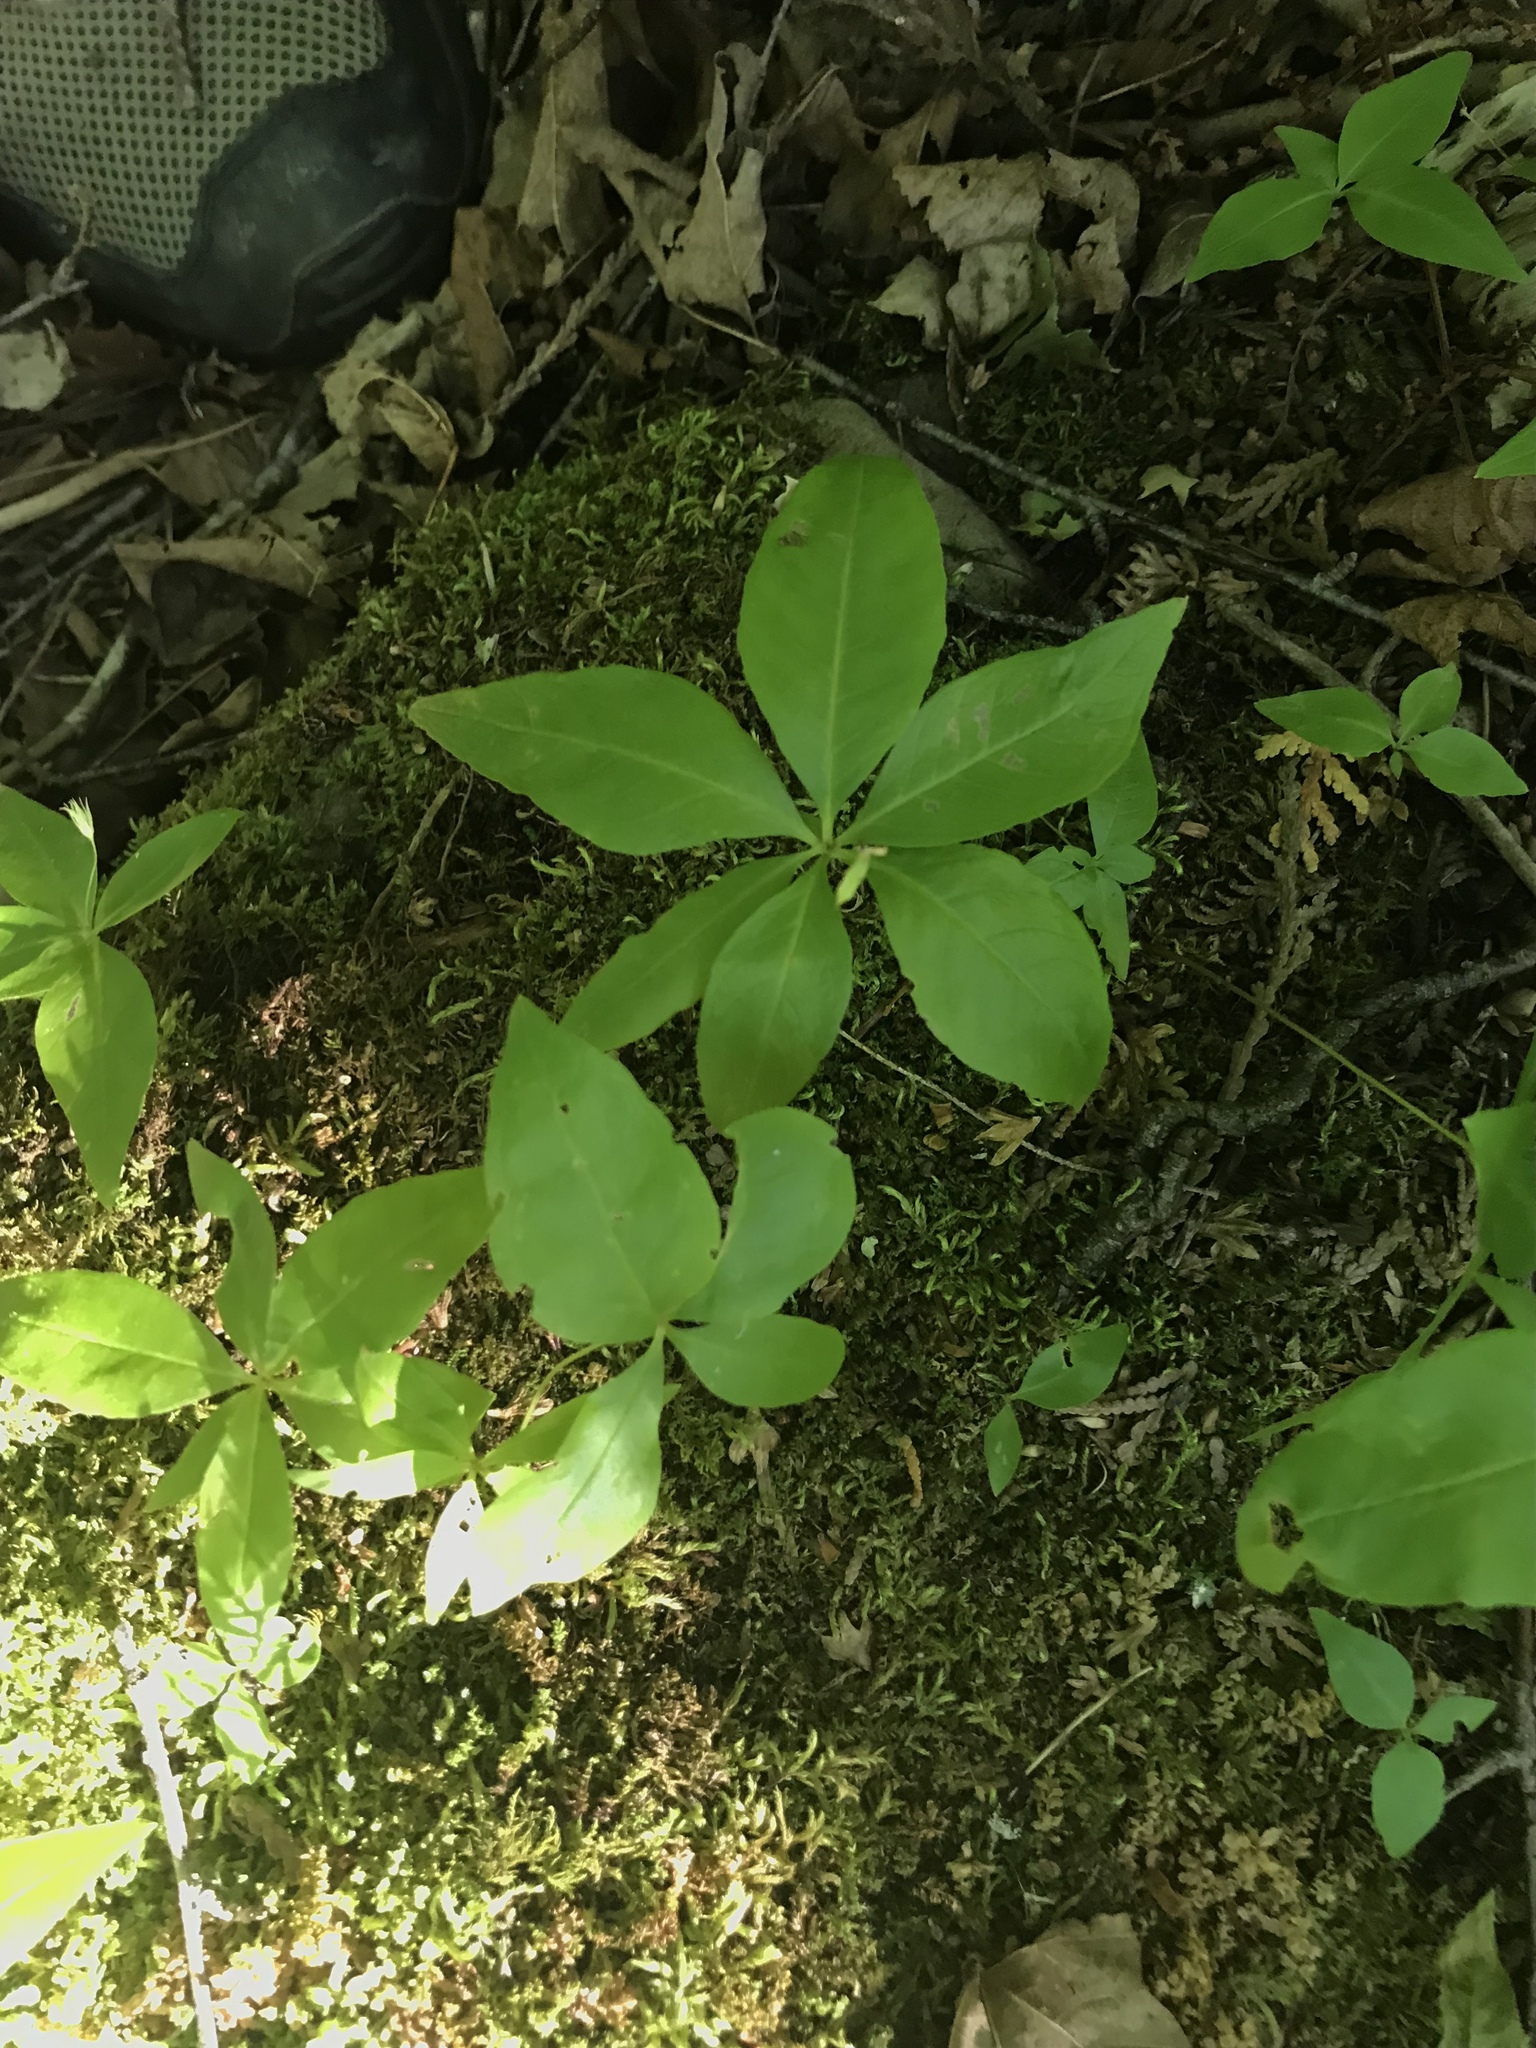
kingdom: Plantae
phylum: Tracheophyta
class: Magnoliopsida
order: Ericales
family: Primulaceae
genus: Lysimachia
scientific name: Lysimachia borealis
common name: American starflower
